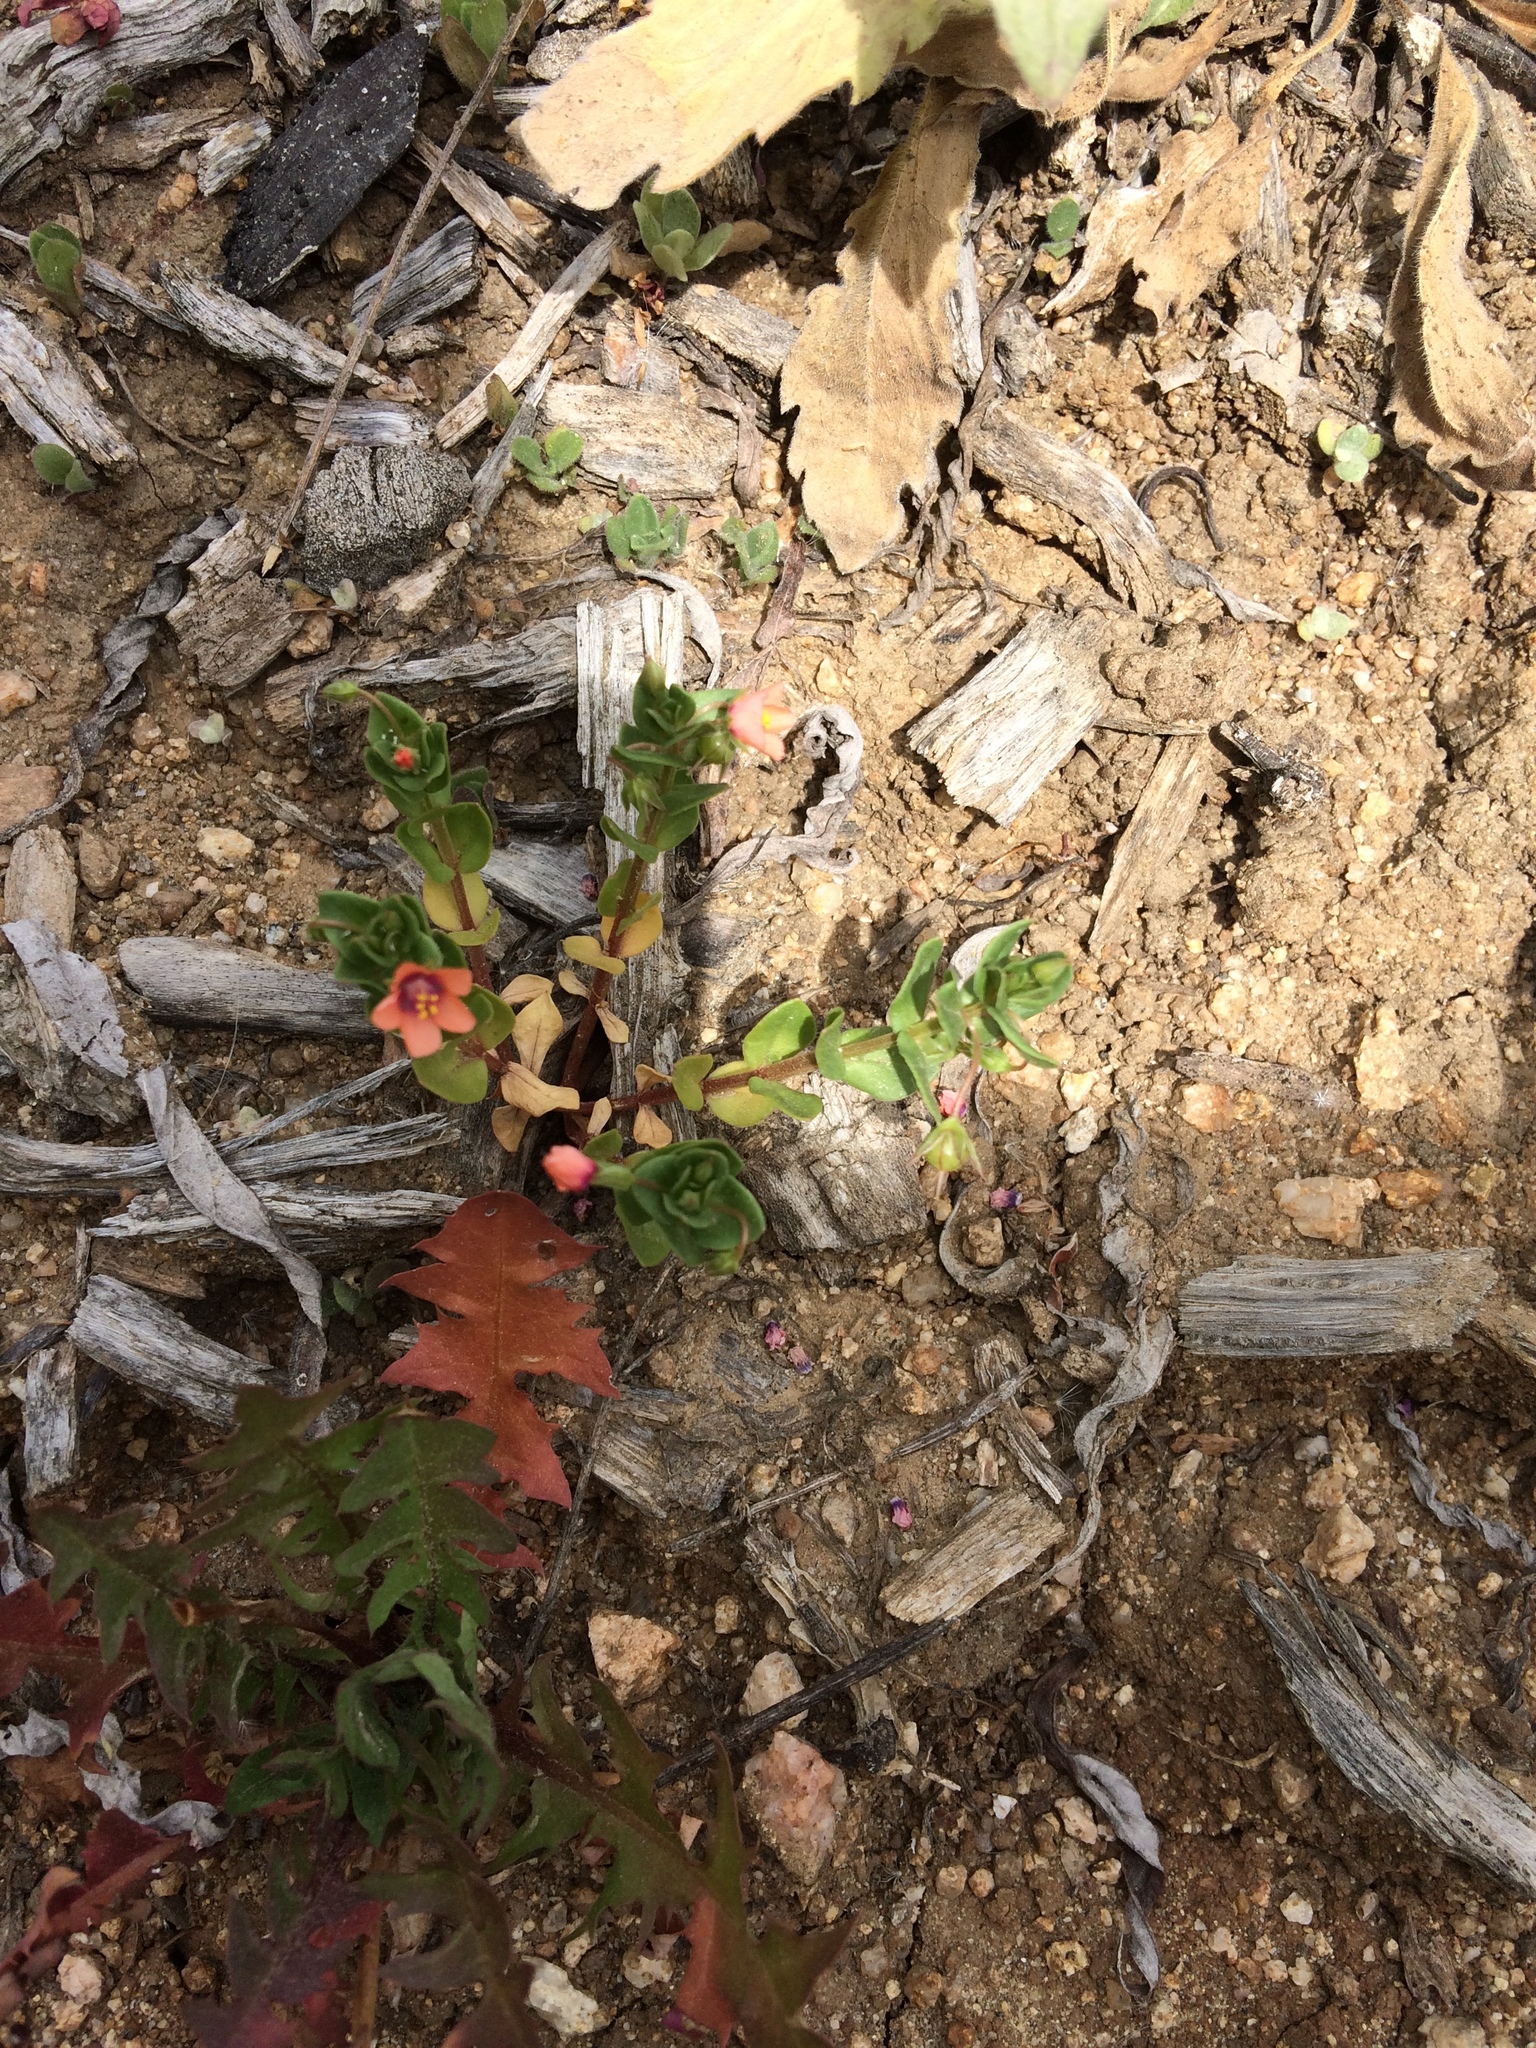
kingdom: Plantae
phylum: Tracheophyta
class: Magnoliopsida
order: Ericales
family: Primulaceae
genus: Lysimachia
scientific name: Lysimachia arvensis
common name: Scarlet pimpernel
